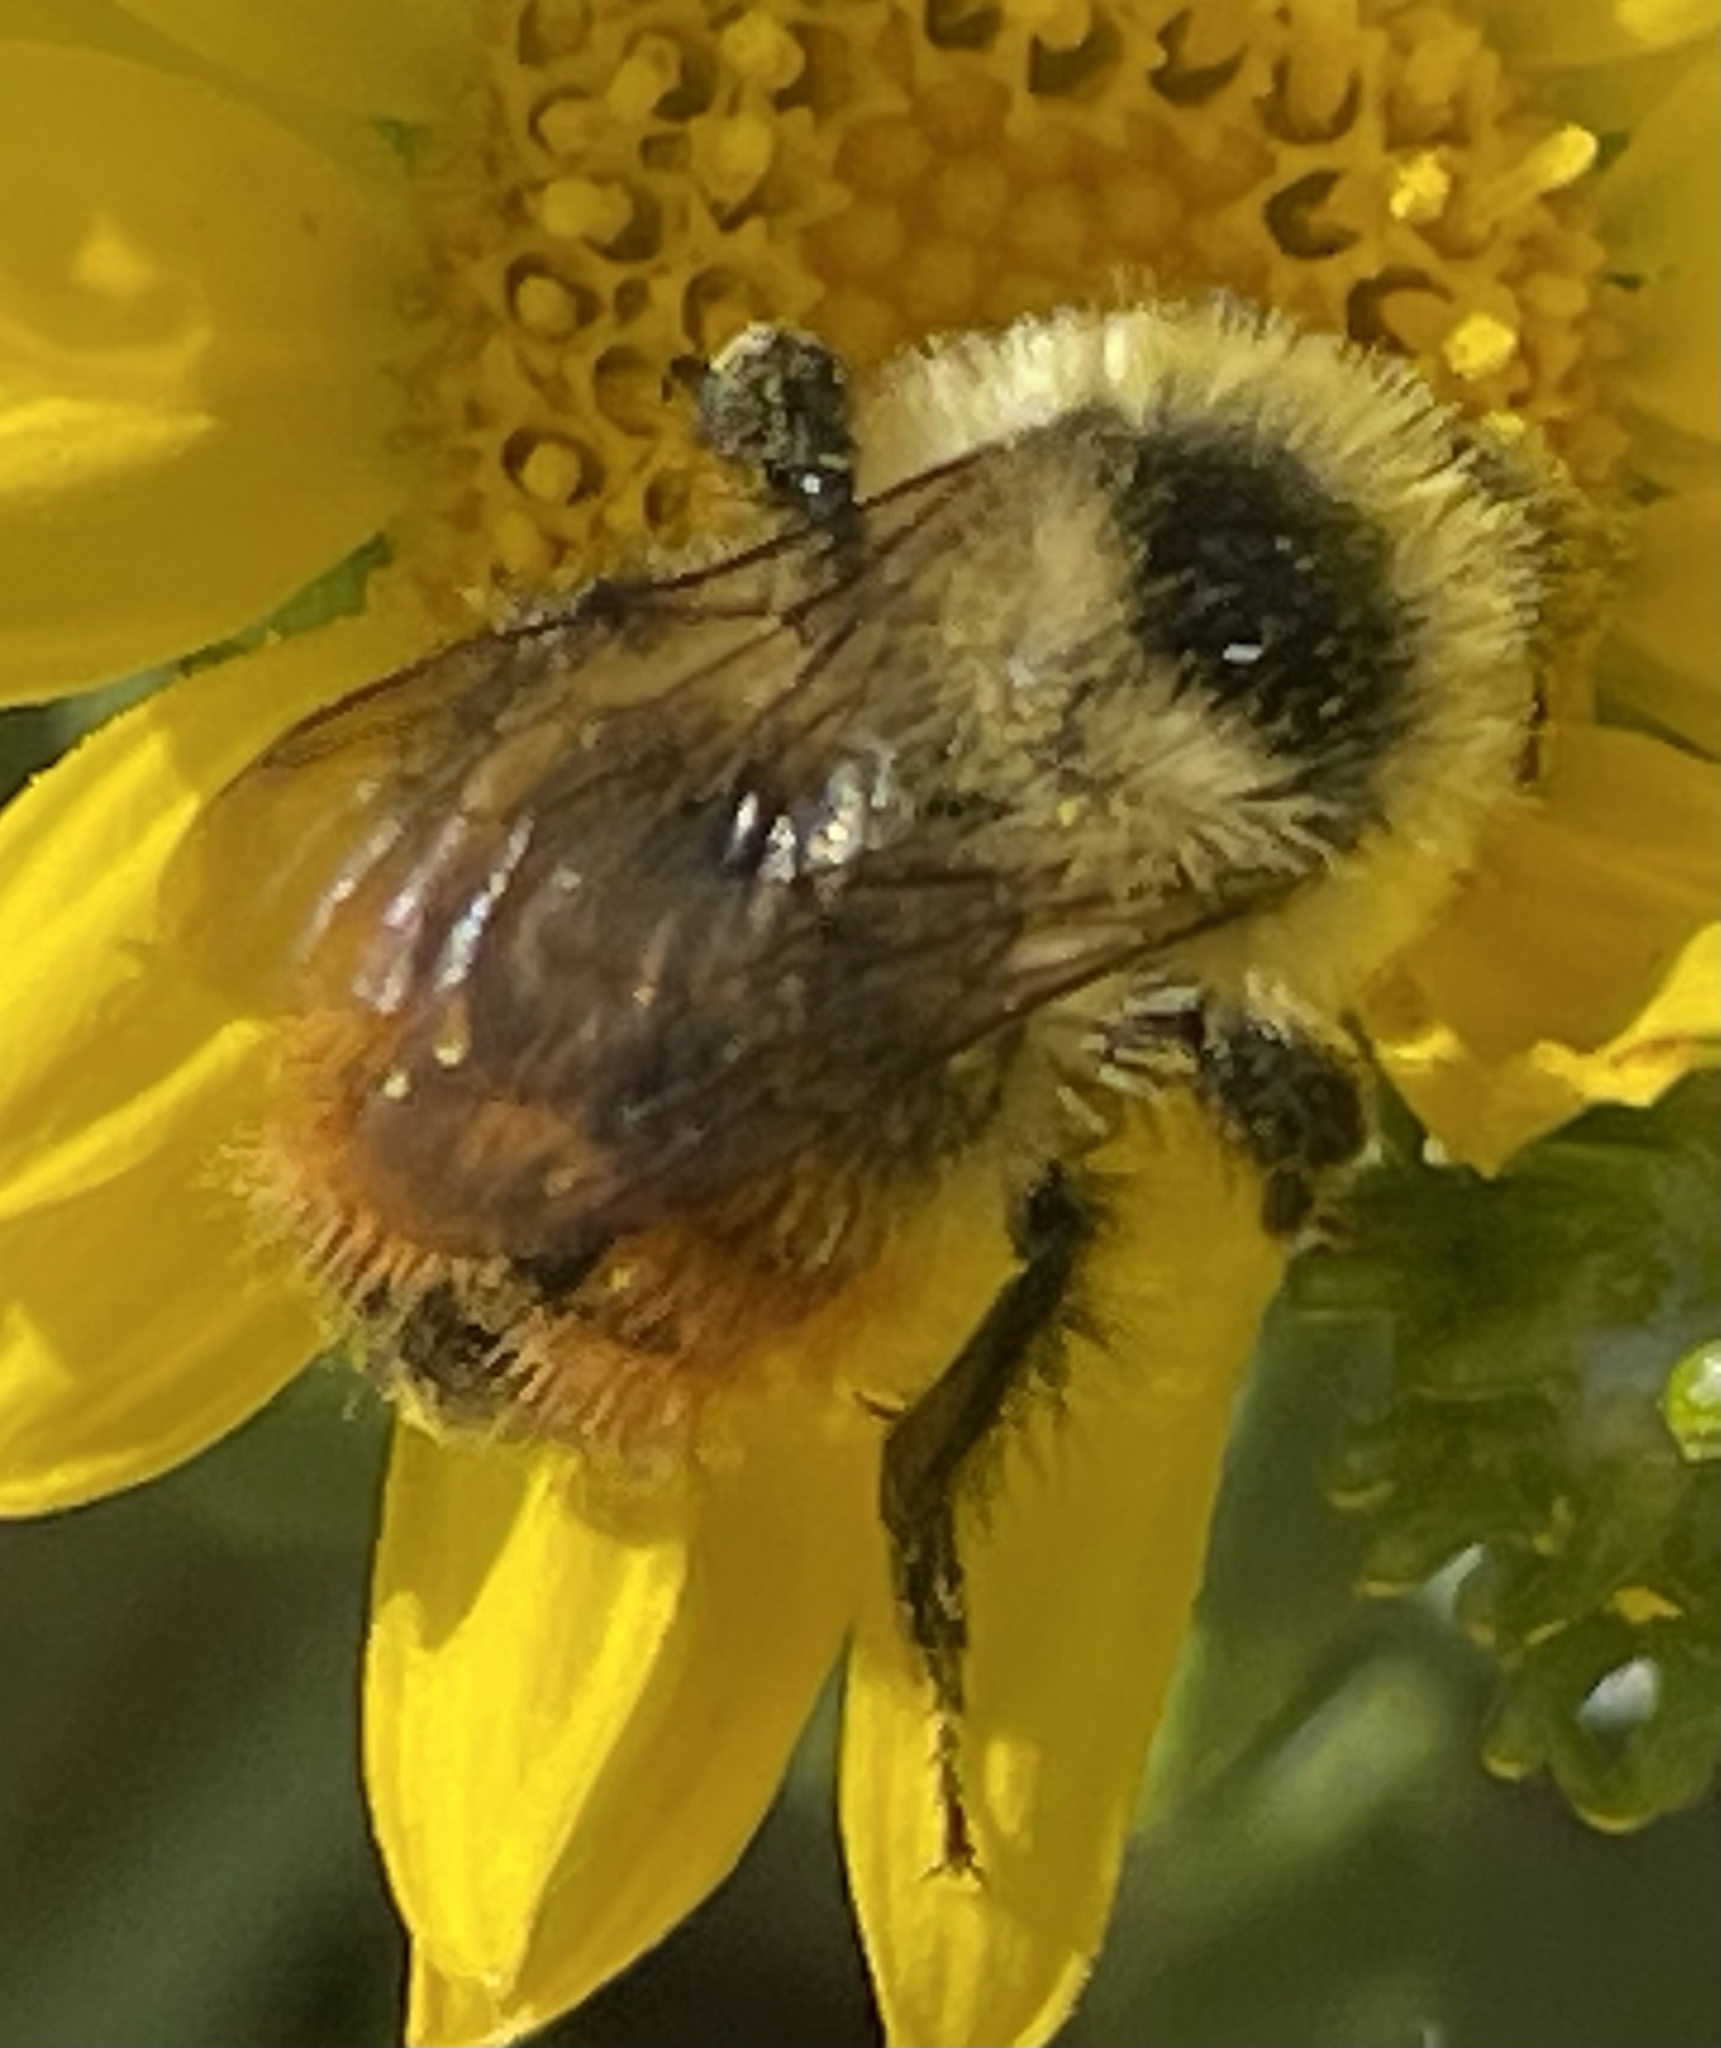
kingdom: Animalia
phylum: Arthropoda
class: Insecta
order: Hymenoptera
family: Apidae
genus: Bombus
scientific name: Bombus rufocinctus
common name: Red-belted bumble bee
